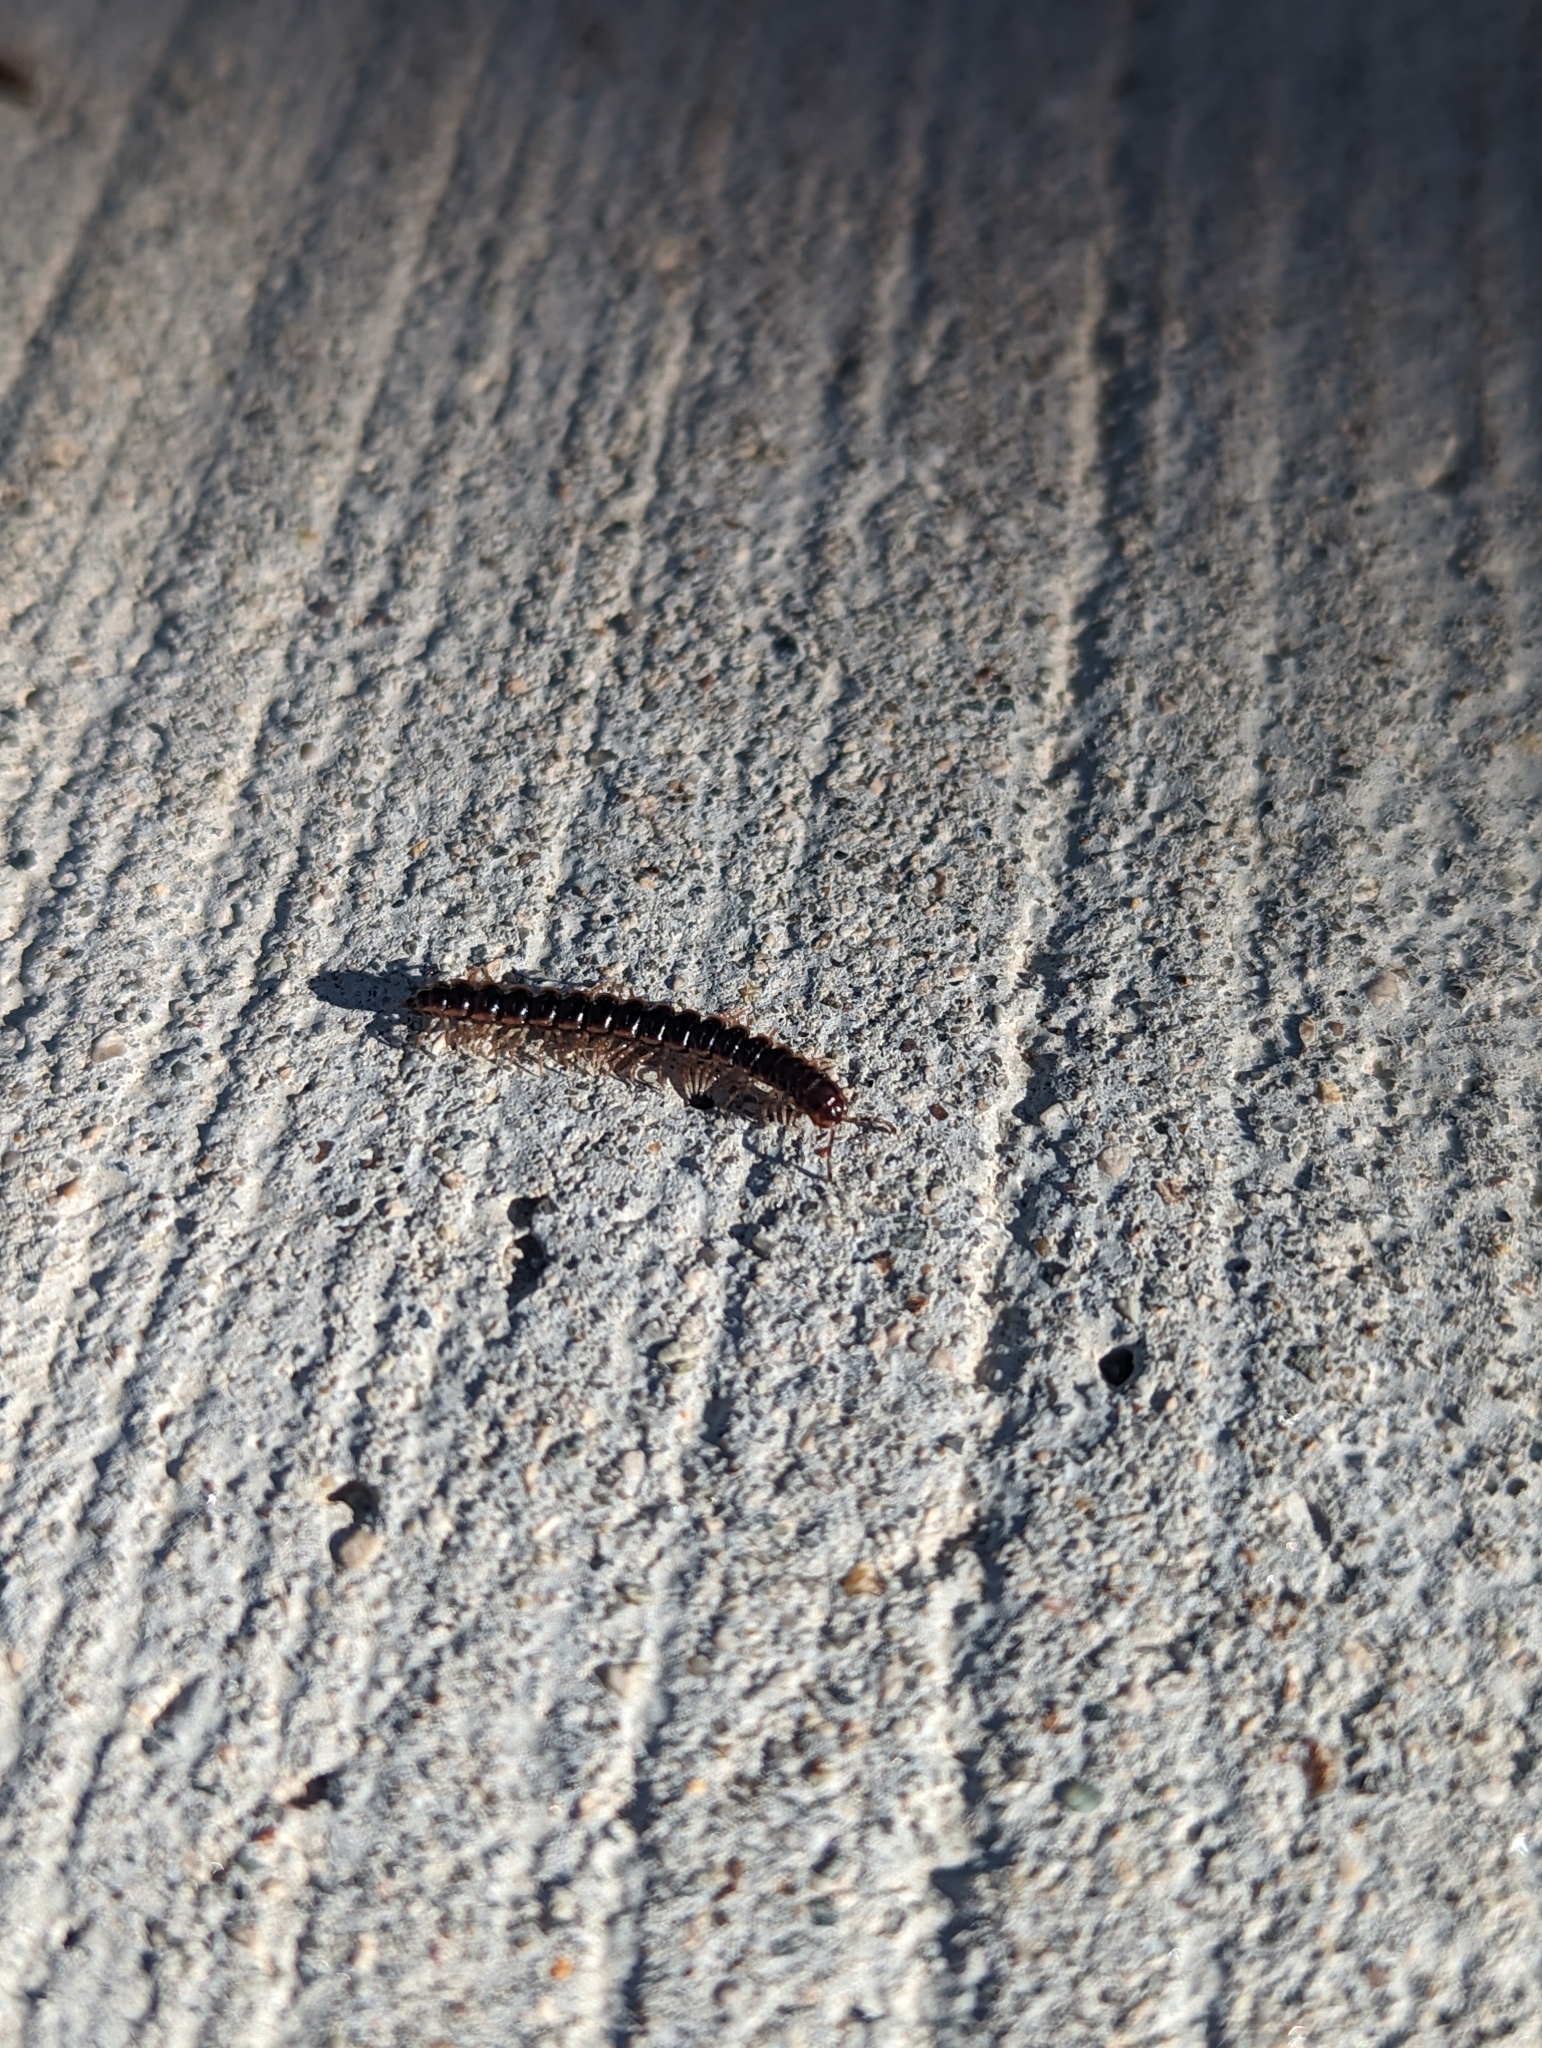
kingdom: Animalia
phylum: Arthropoda
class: Diplopoda
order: Polydesmida
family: Paradoxosomatidae
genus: Oxidus
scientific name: Oxidus gracilis
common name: Greenhouse millipede
